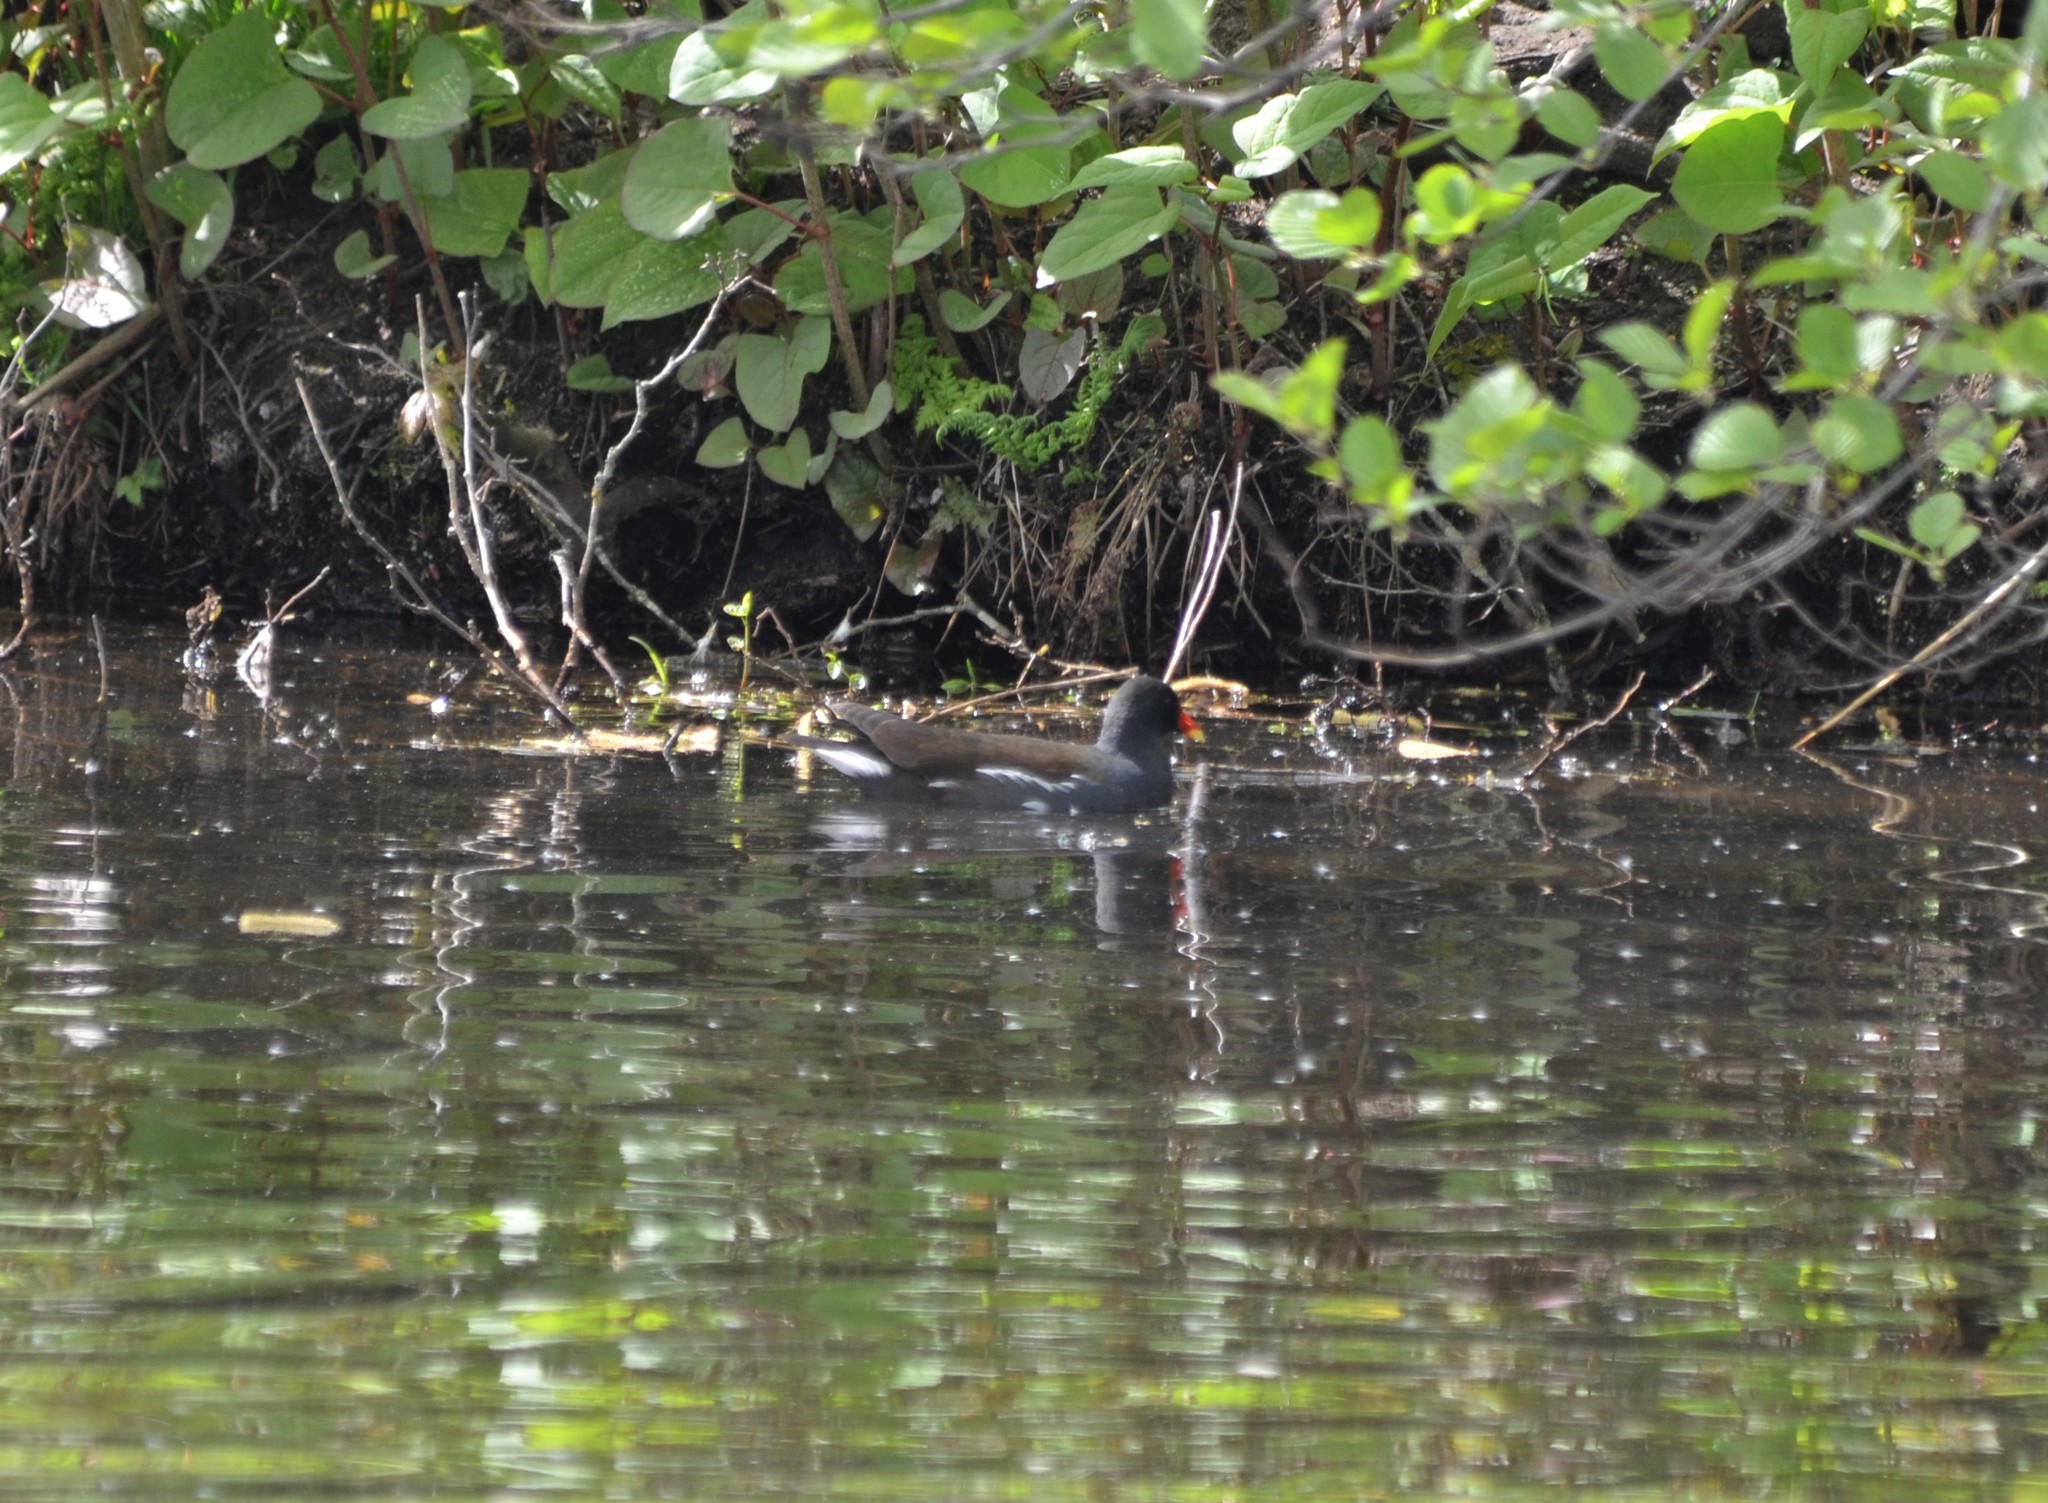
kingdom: Animalia
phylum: Chordata
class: Aves
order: Gruiformes
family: Rallidae
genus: Gallinula
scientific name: Gallinula chloropus
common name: Common moorhen
